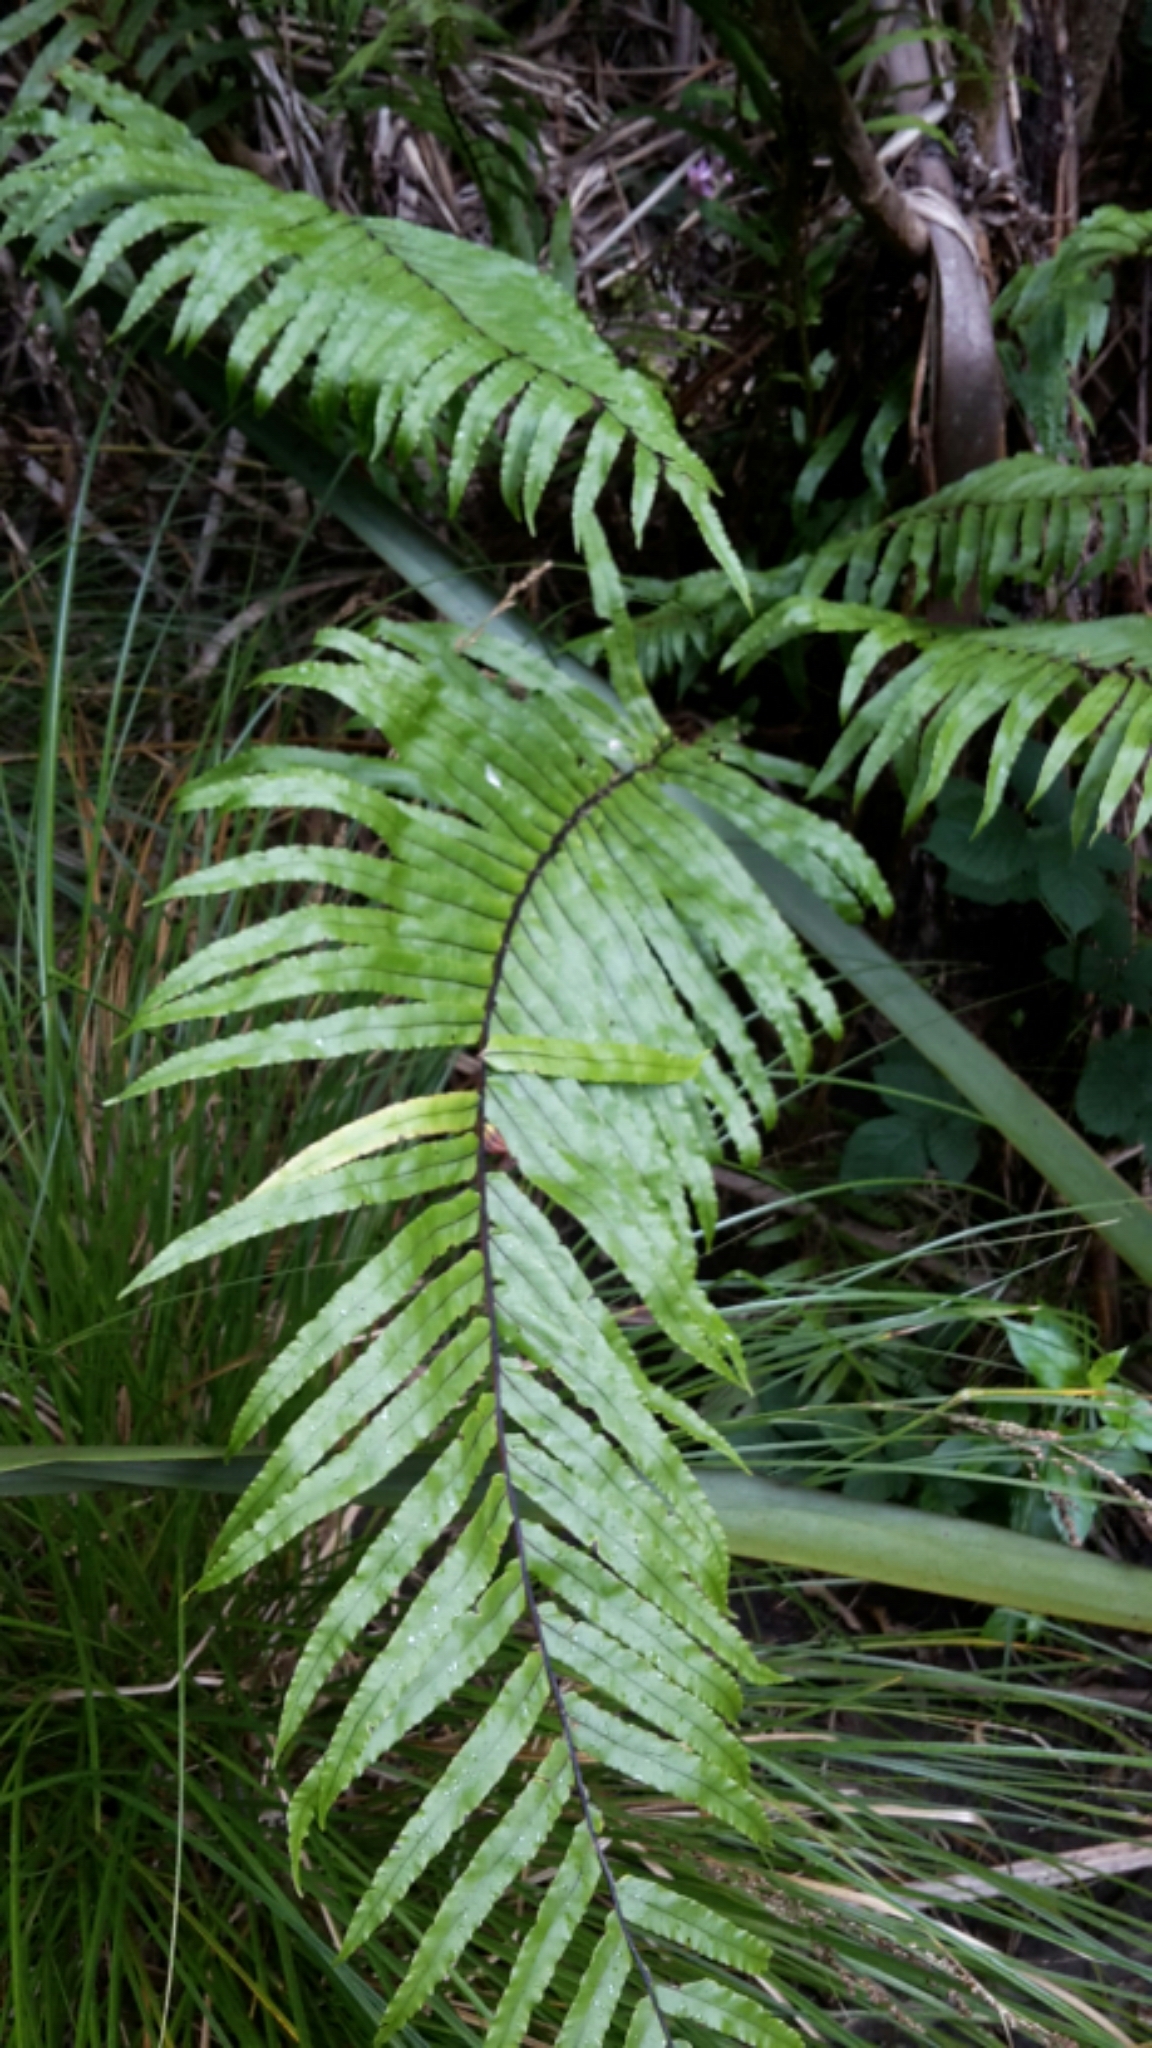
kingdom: Plantae
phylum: Tracheophyta
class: Polypodiopsida
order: Polypodiales
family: Blechnaceae
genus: Parablechnum
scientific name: Parablechnum novae-zelandiae
